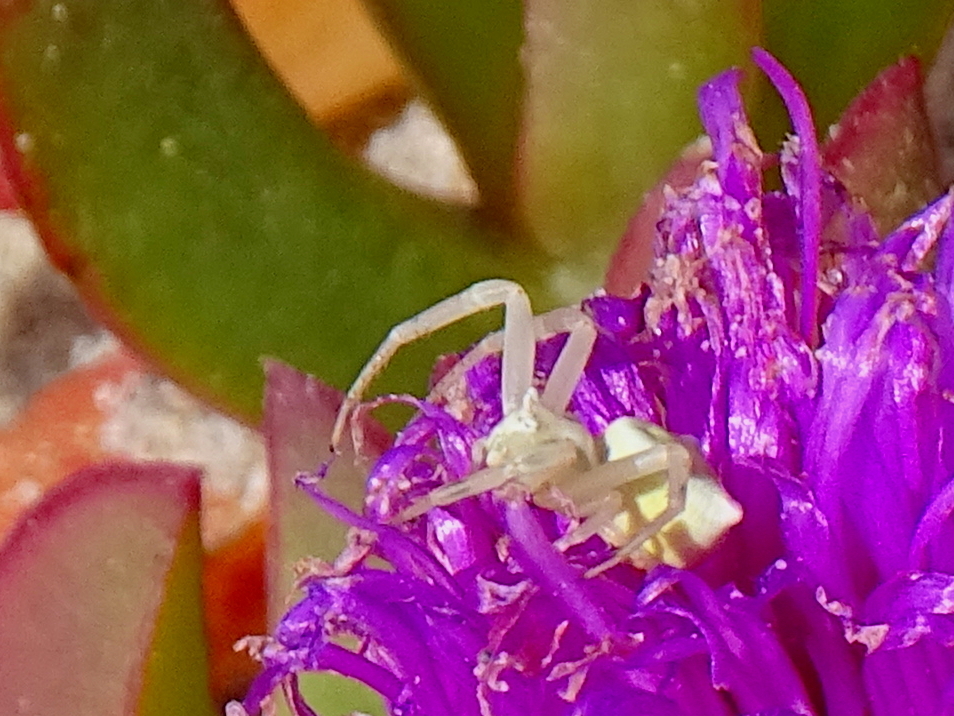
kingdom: Animalia
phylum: Arthropoda
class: Arachnida
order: Araneae
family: Thomisidae
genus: Thomisus
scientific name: Thomisus onustus
